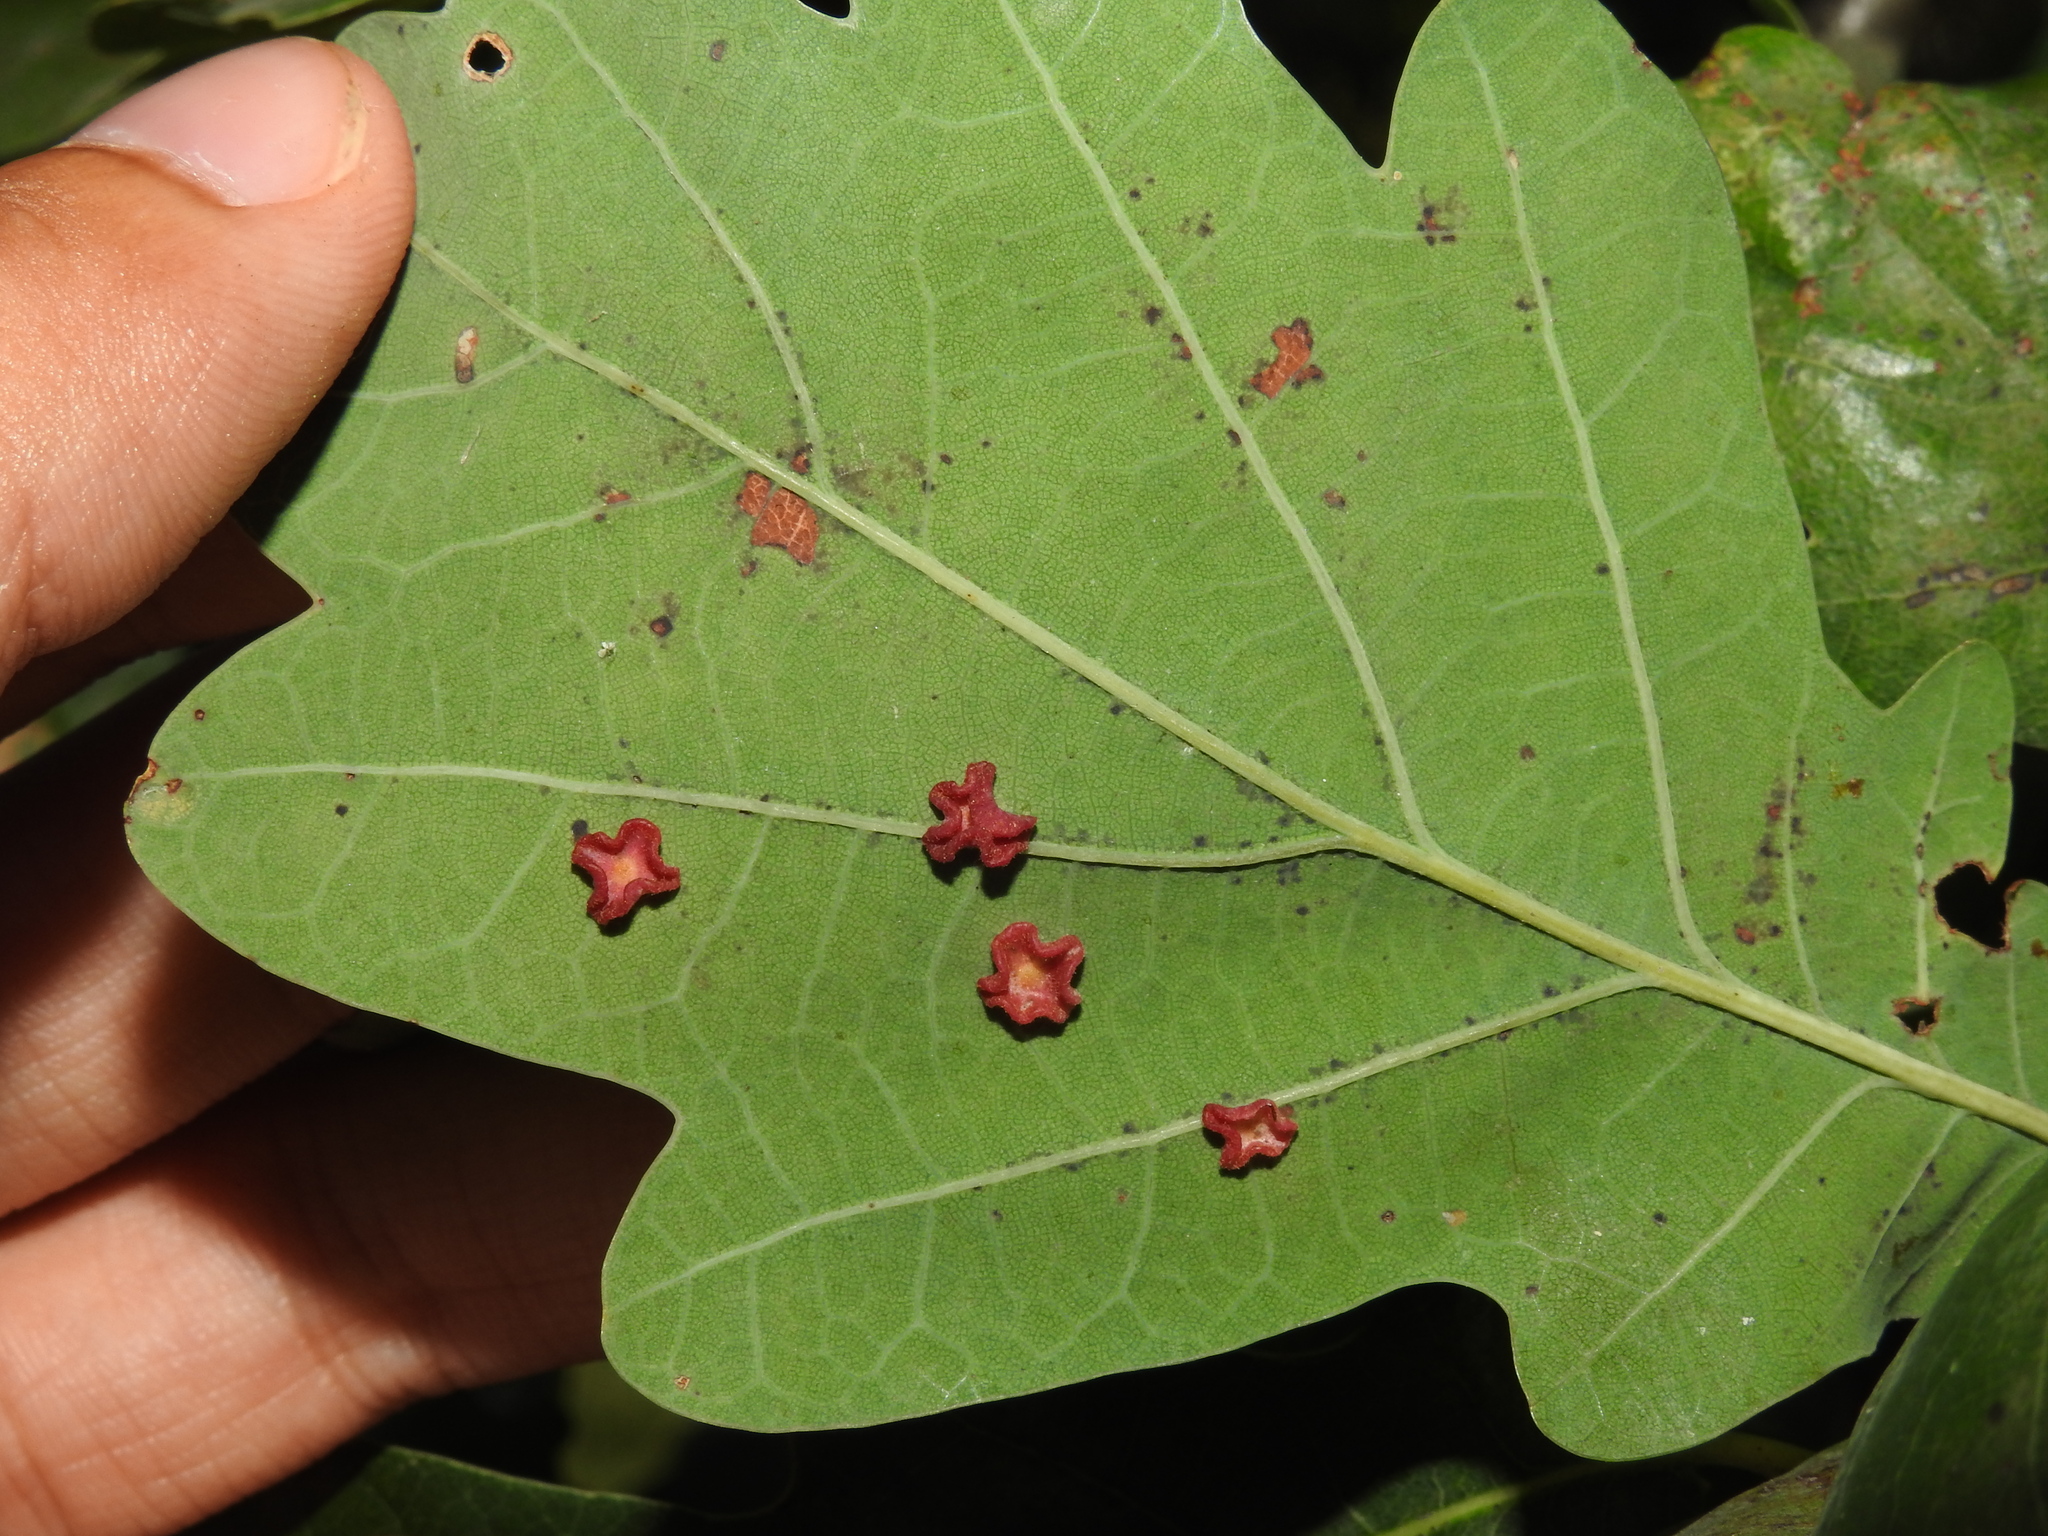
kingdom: Animalia
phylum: Arthropoda
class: Insecta
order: Hymenoptera
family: Cynipidae
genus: Neuroterus
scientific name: Neuroterus albipes
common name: Smooth spangle gall
